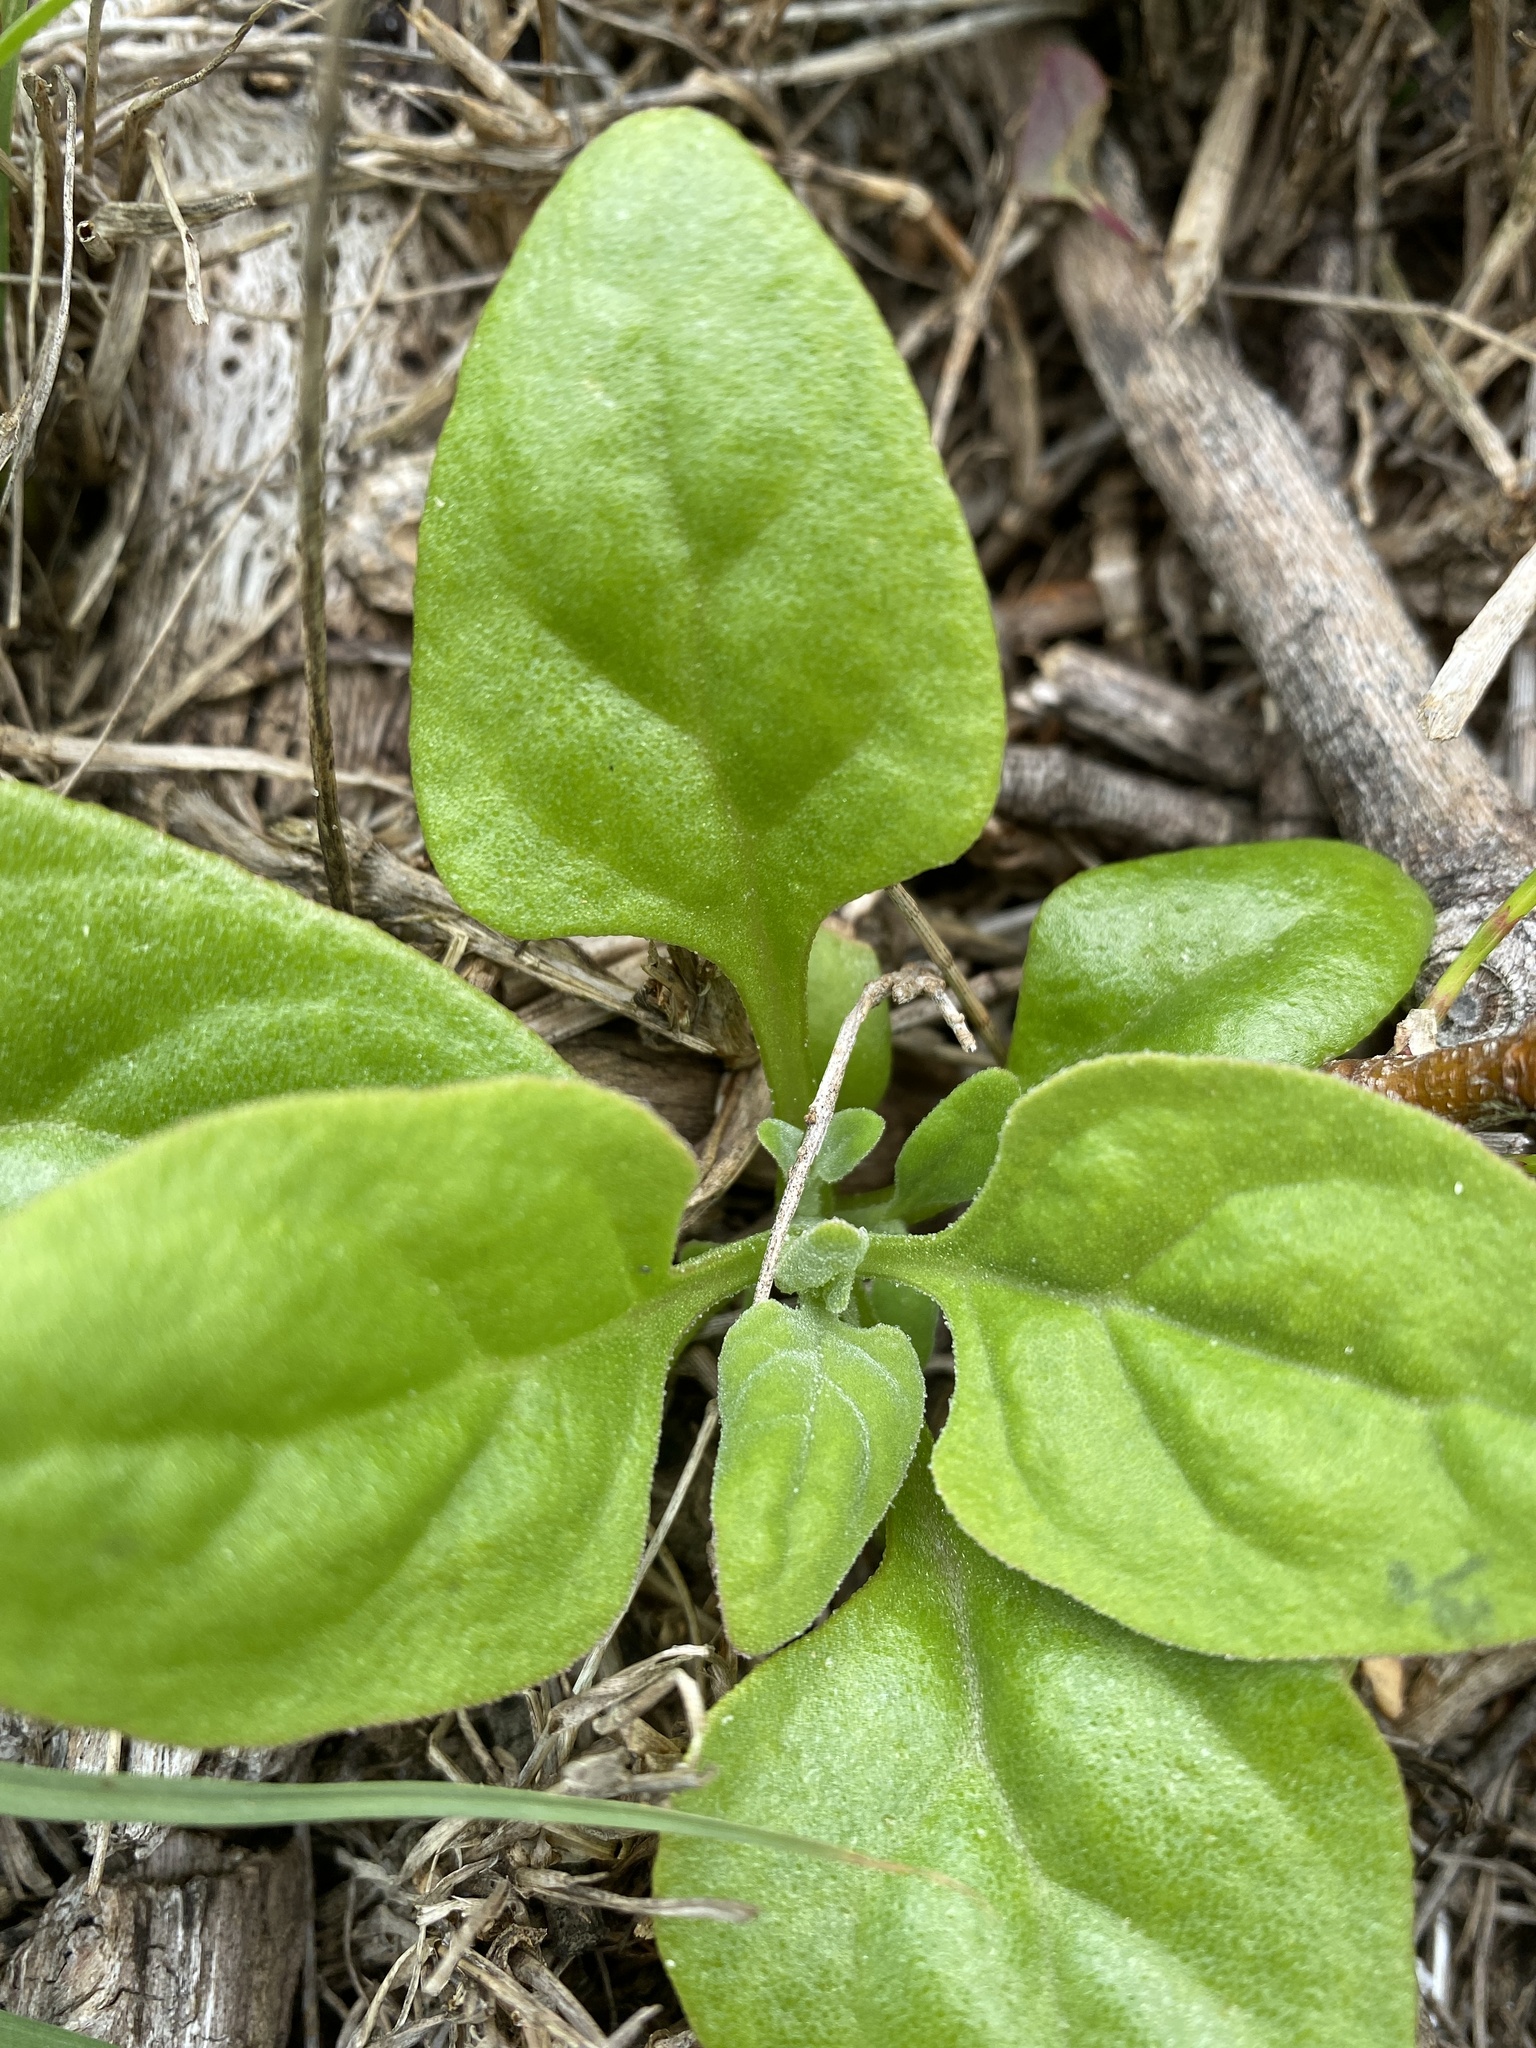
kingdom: Plantae
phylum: Tracheophyta
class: Magnoliopsida
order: Caryophyllales
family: Aizoaceae
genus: Tetragonia
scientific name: Tetragonia tetragonoides
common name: New zealand-spinach
